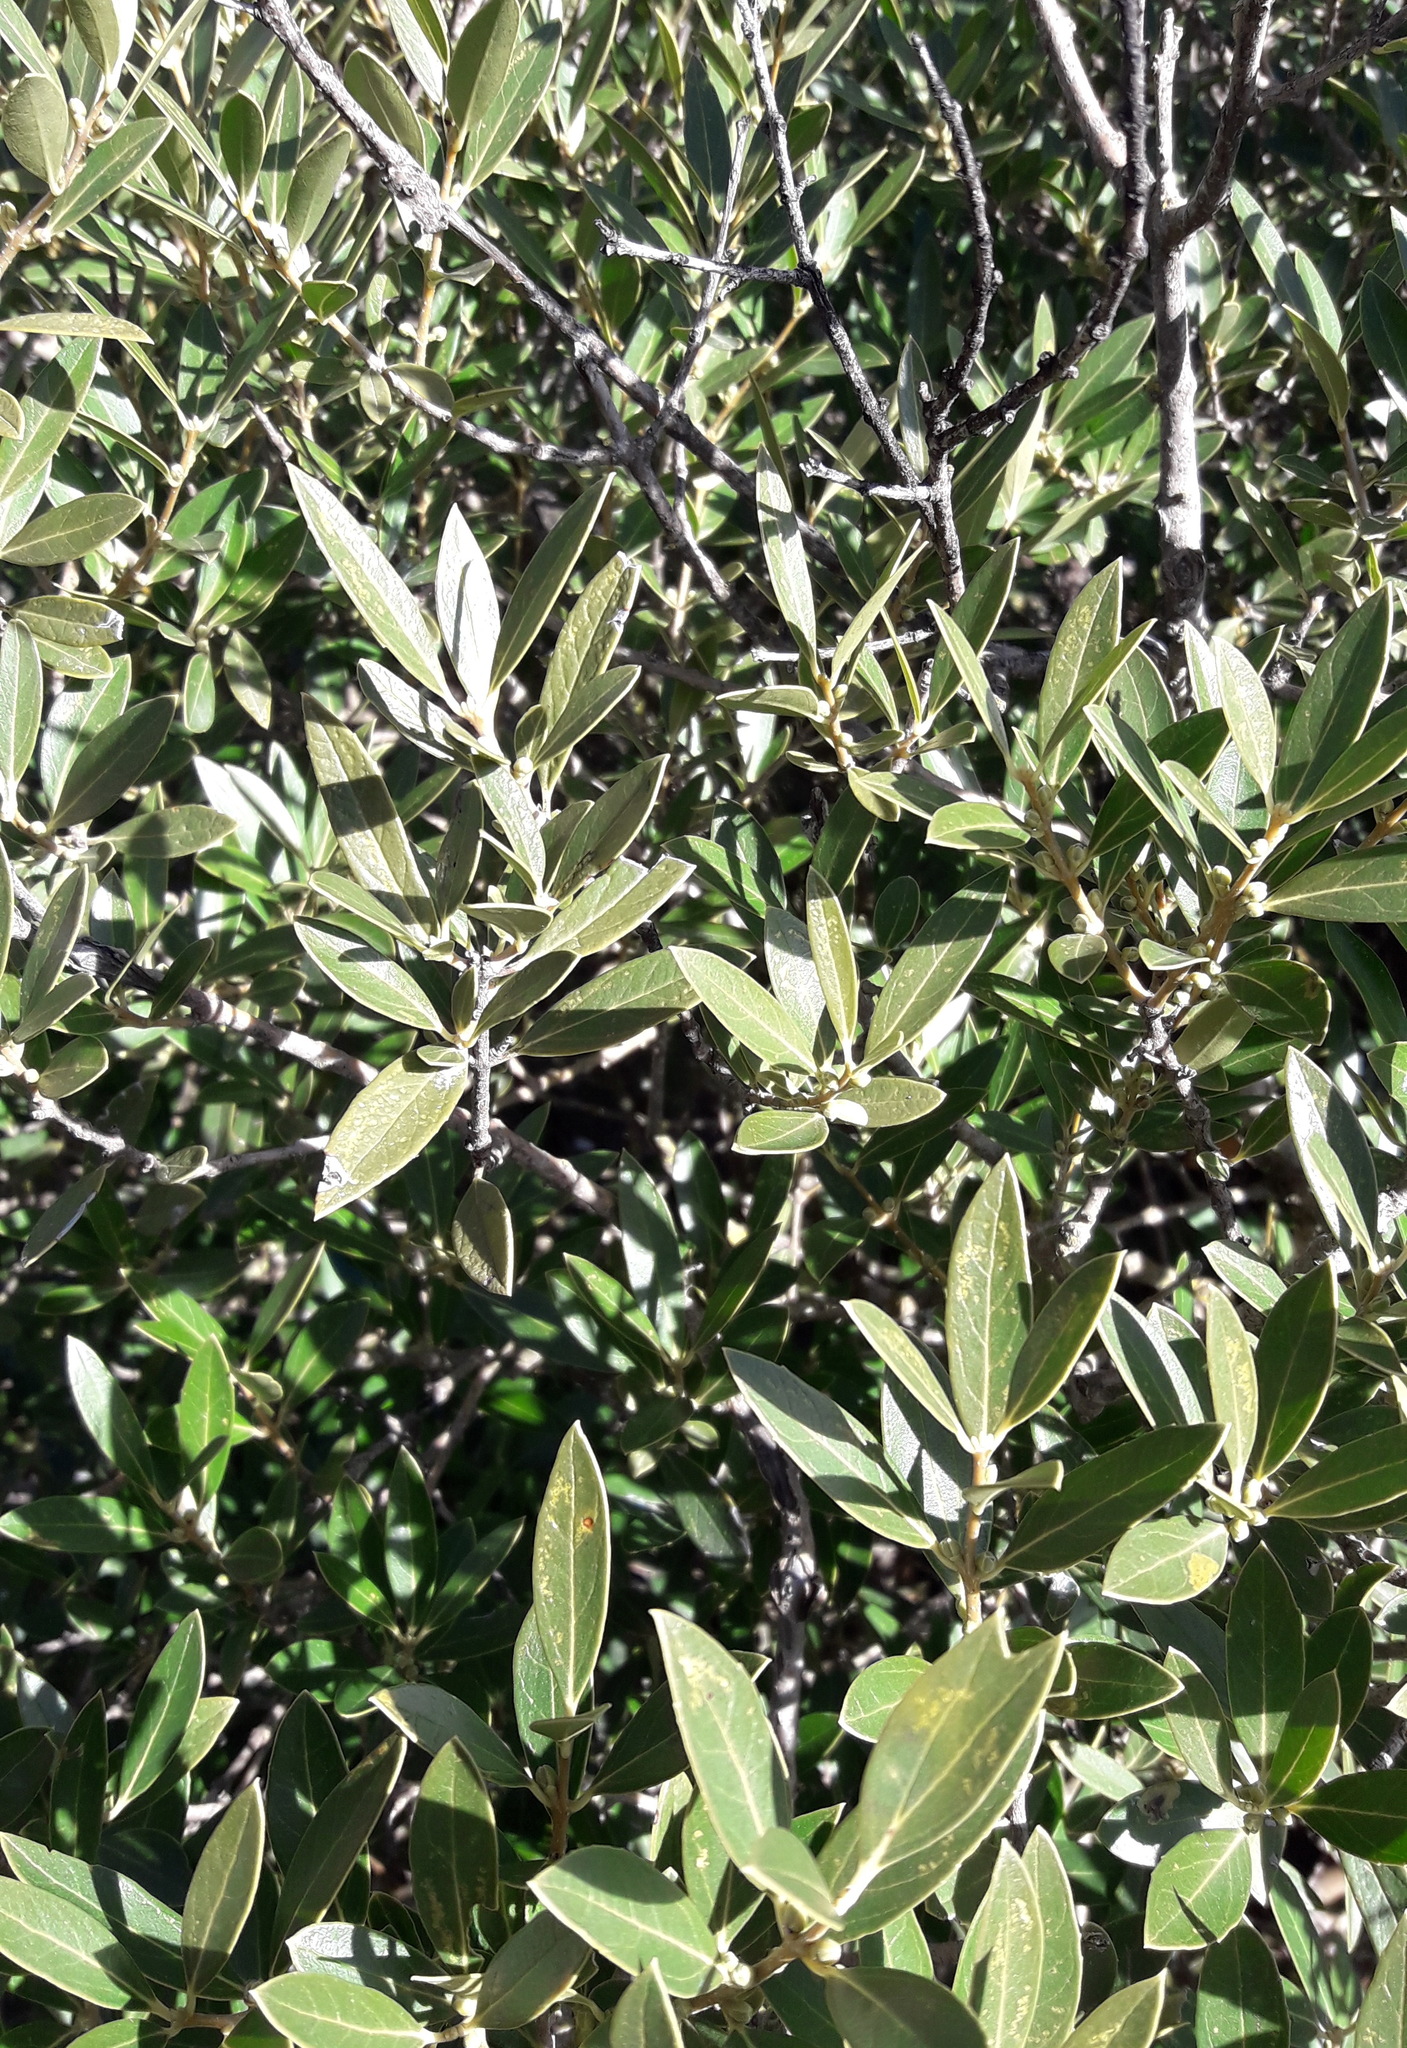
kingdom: Plantae
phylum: Tracheophyta
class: Magnoliopsida
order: Lamiales
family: Oleaceae
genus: Phillyrea
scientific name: Phillyrea latifolia
